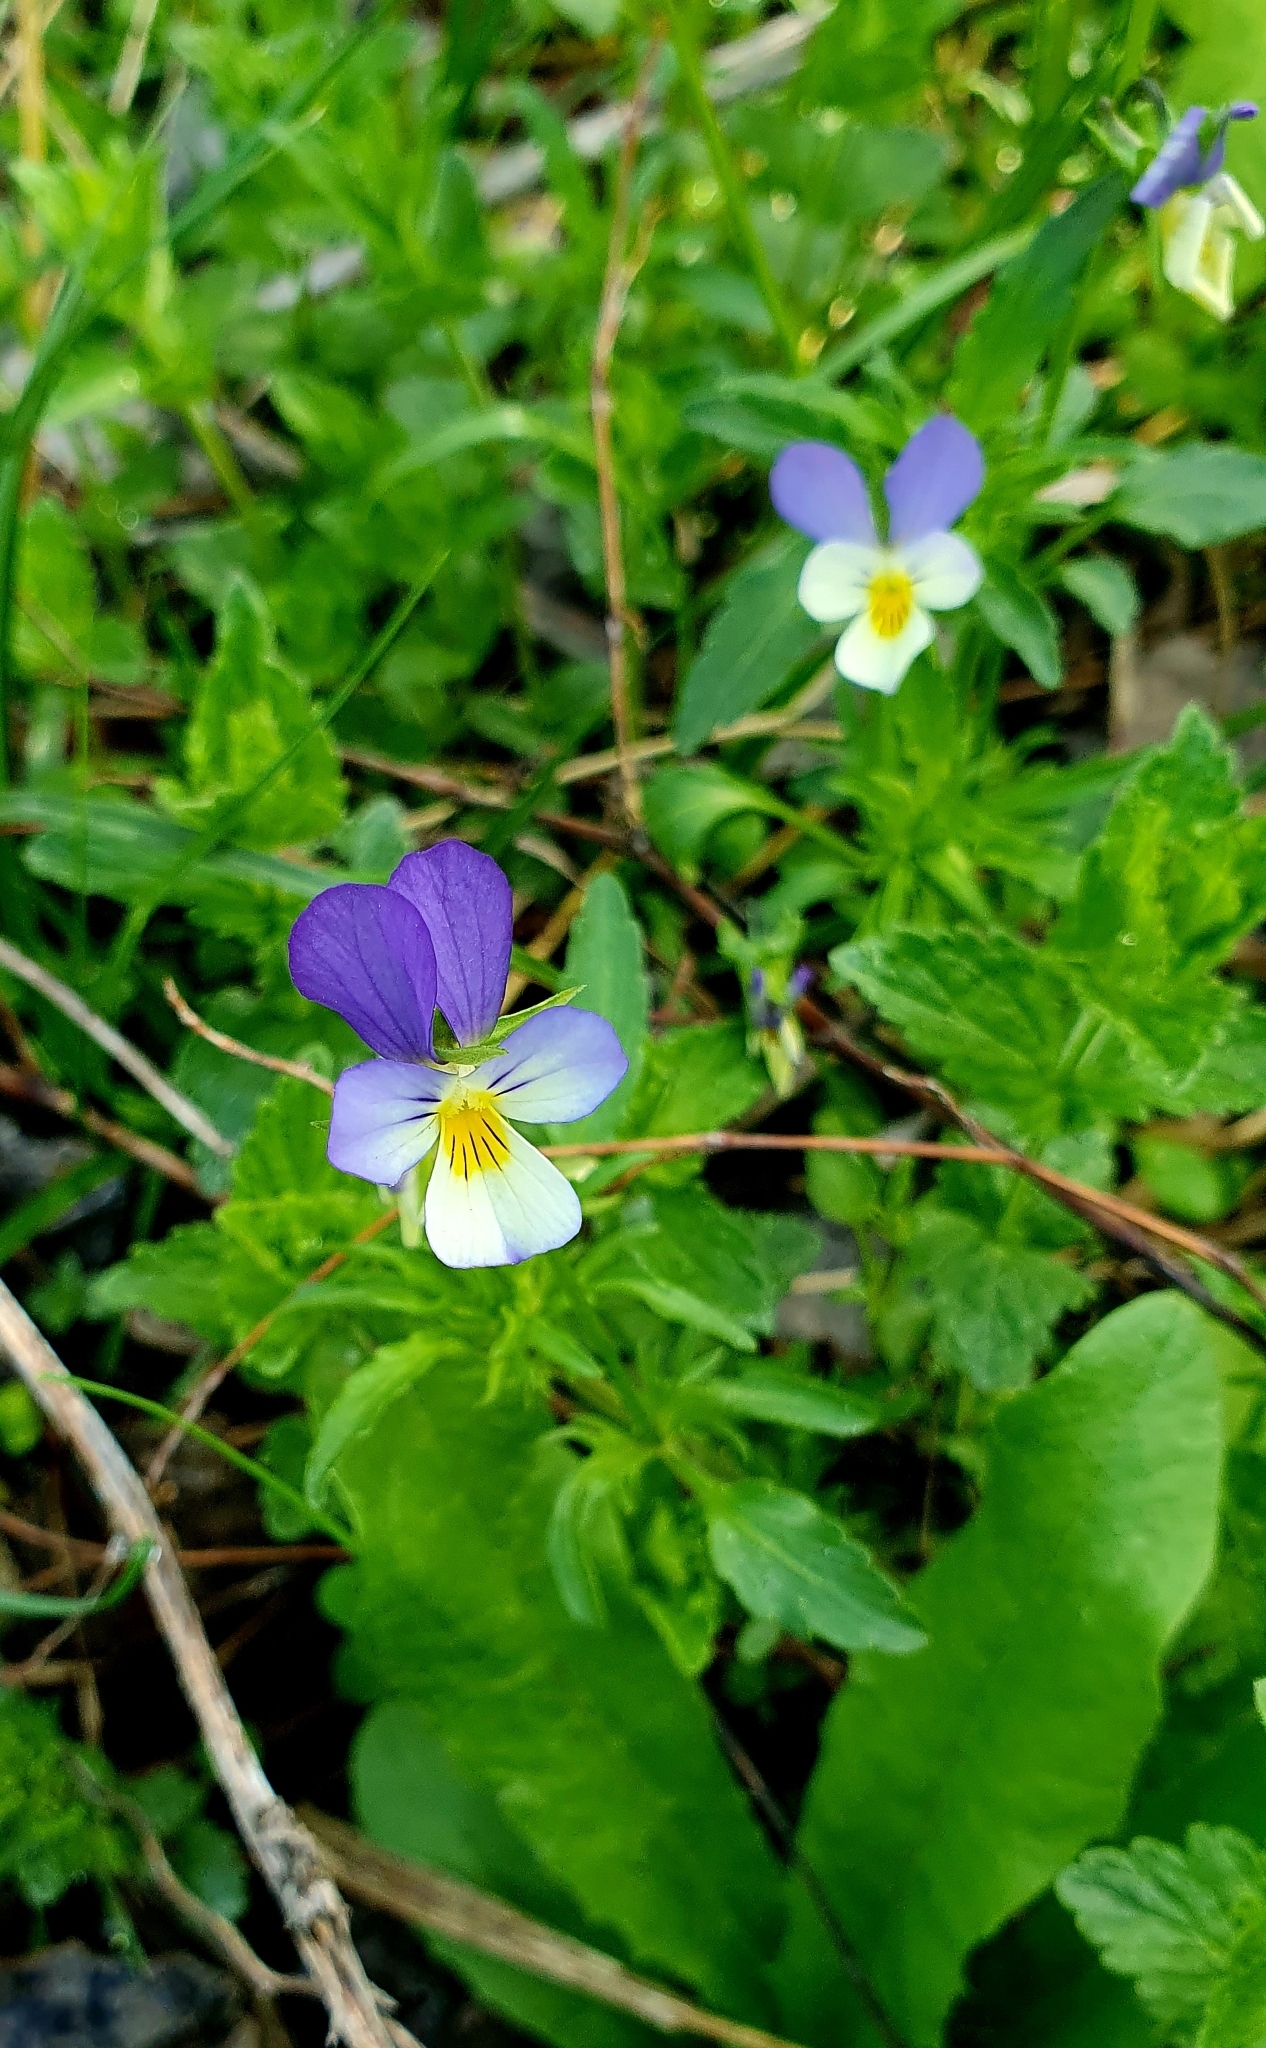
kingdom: Plantae
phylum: Tracheophyta
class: Magnoliopsida
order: Malpighiales
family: Violaceae
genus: Viola
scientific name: Viola tricolor
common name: Pansy
